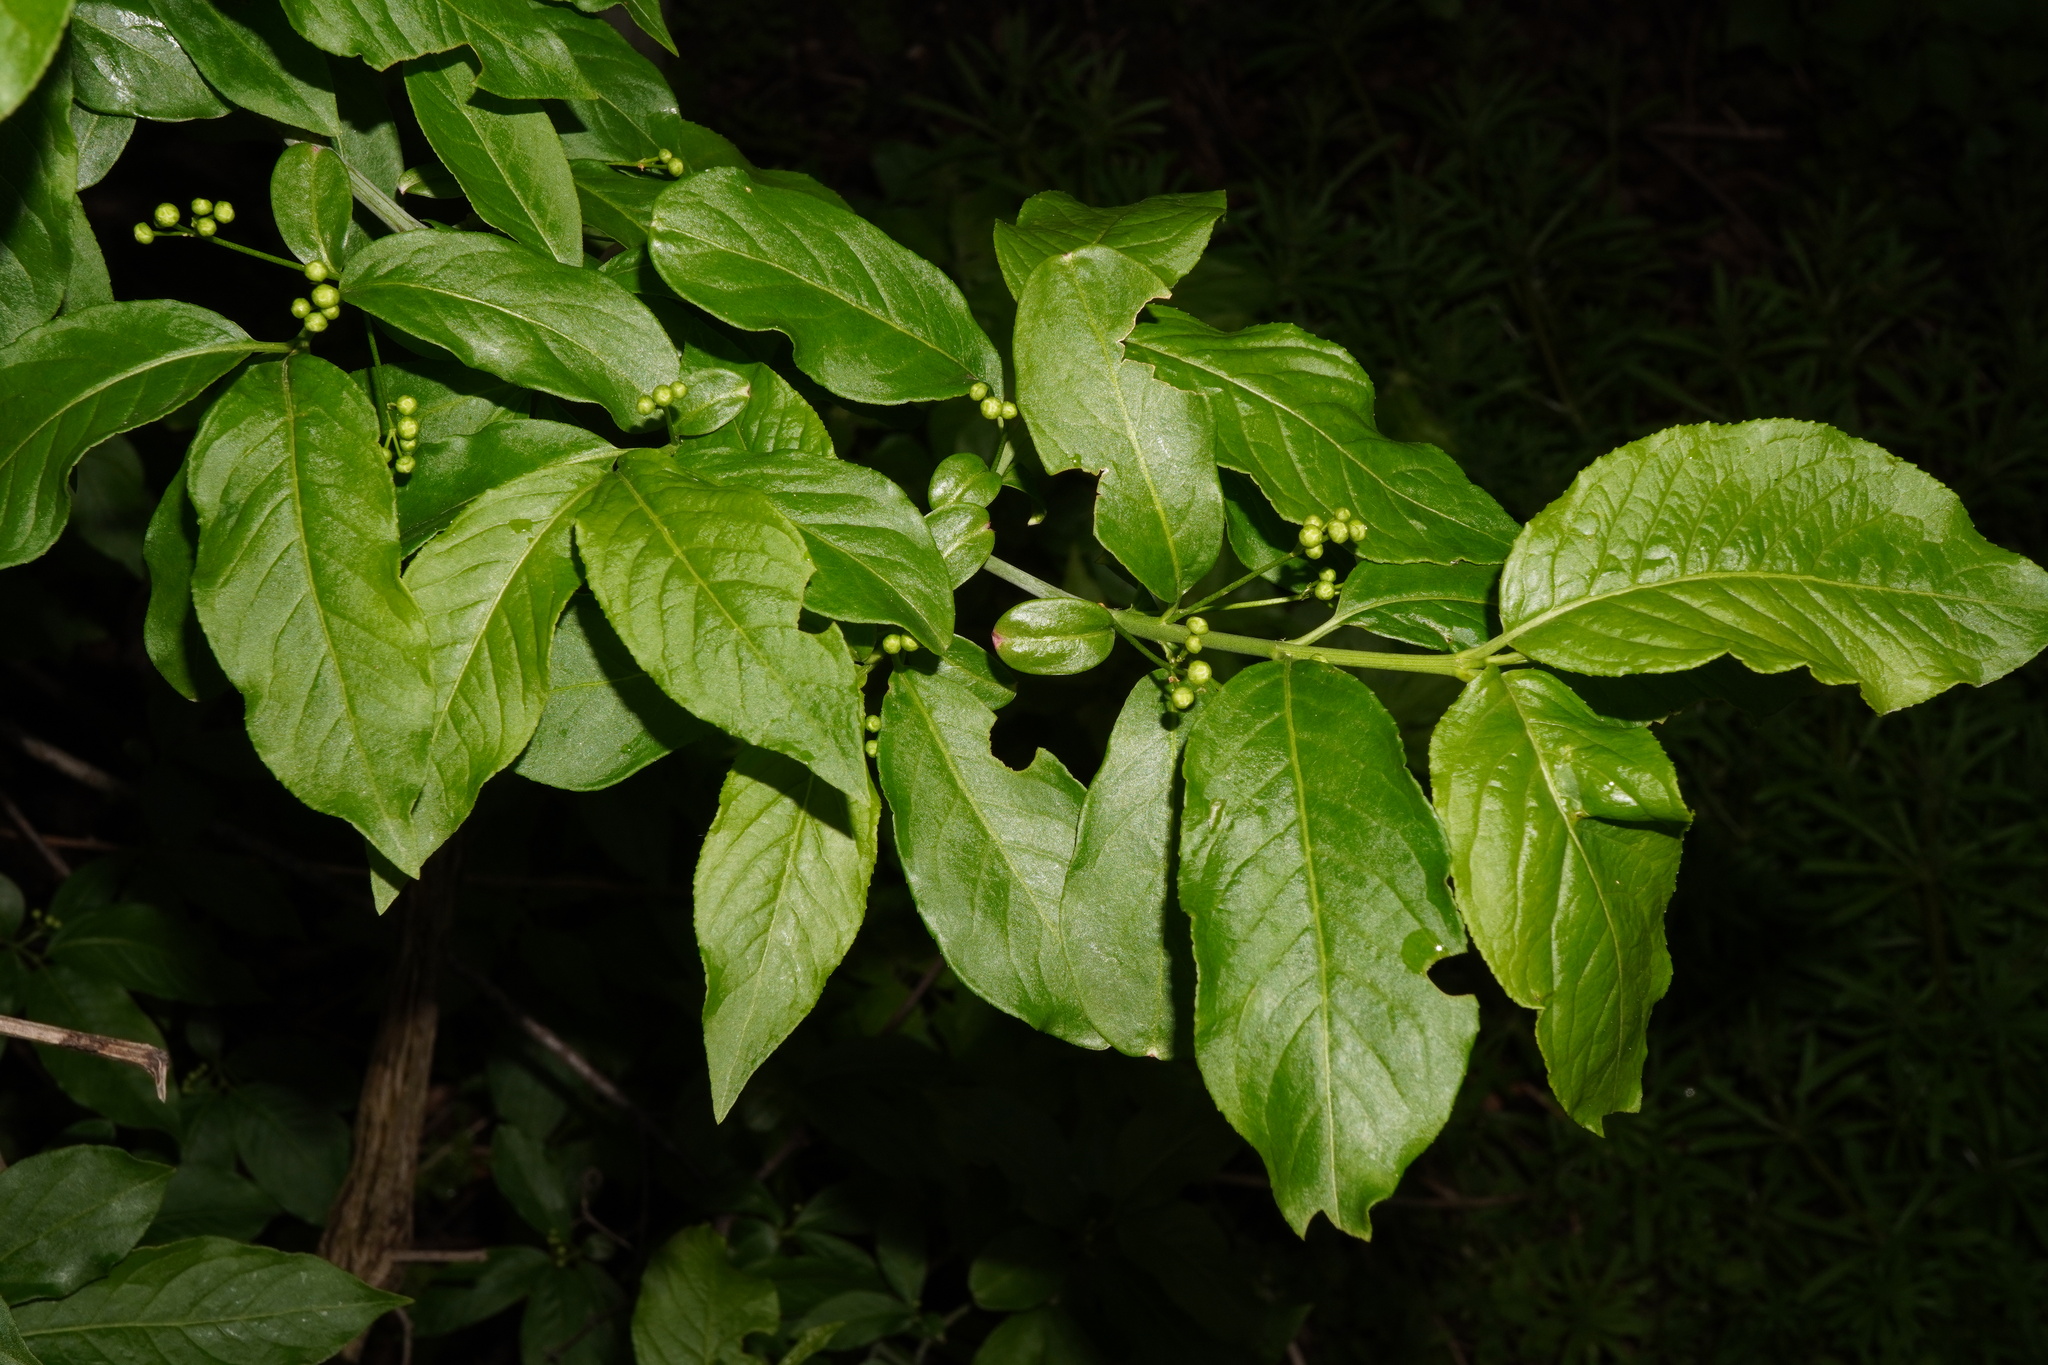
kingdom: Plantae
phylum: Tracheophyta
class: Magnoliopsida
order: Celastrales
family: Celastraceae
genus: Euonymus
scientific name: Euonymus europaeus
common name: Spindle
